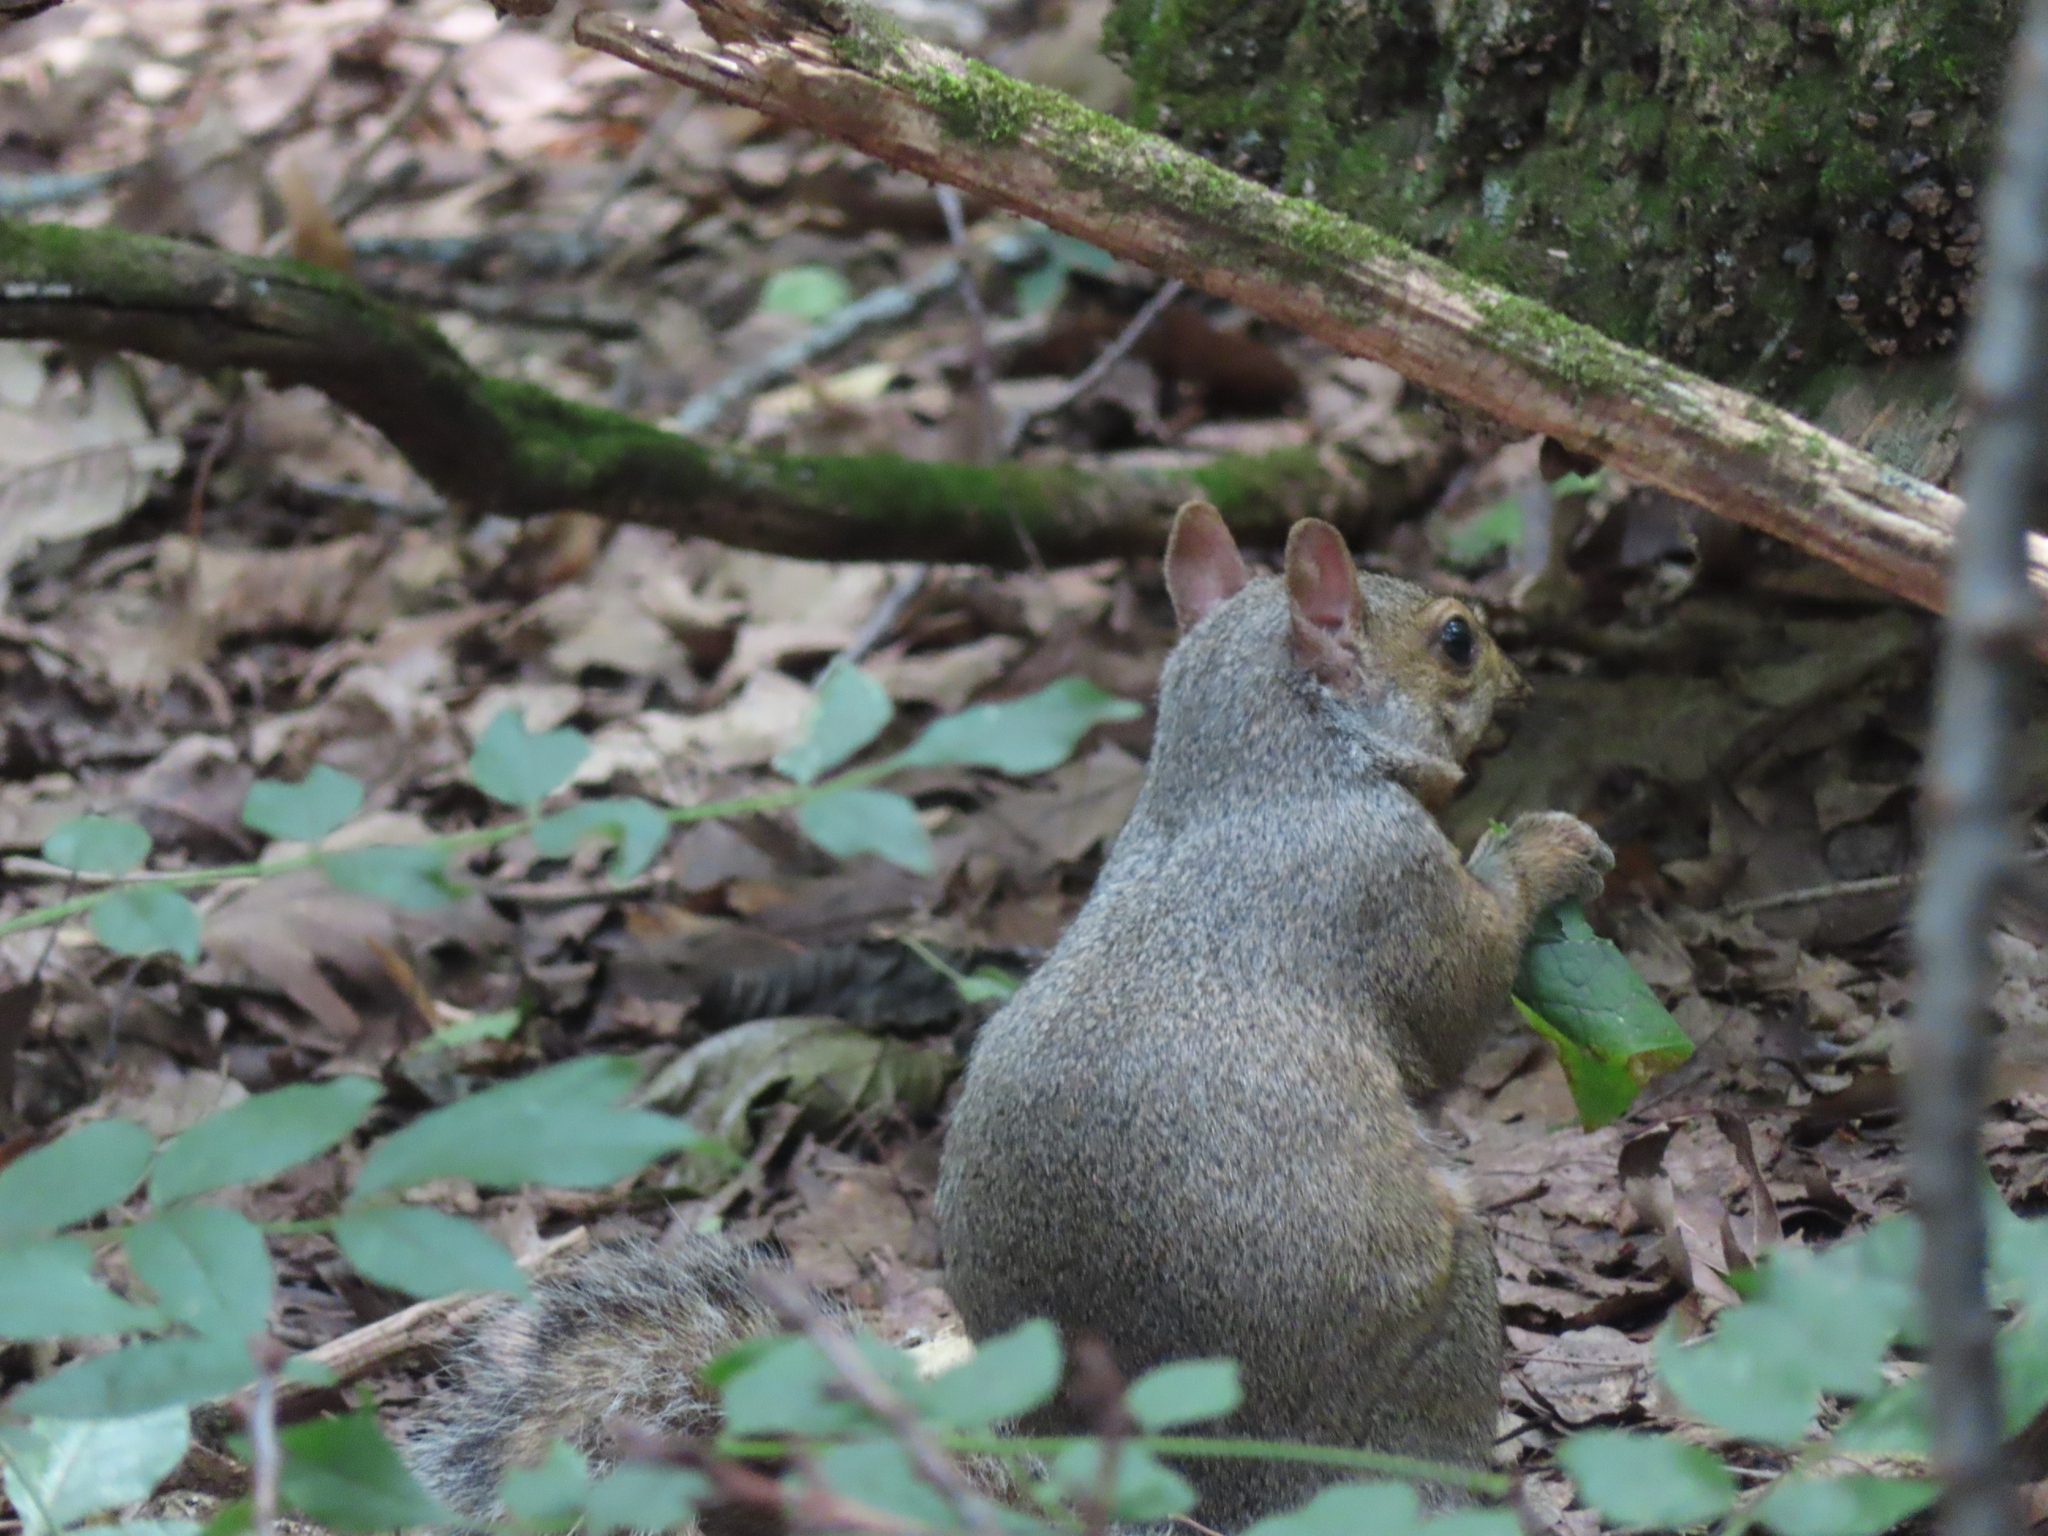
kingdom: Animalia
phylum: Chordata
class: Mammalia
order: Rodentia
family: Sciuridae
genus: Sciurus
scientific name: Sciurus carolinensis
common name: Eastern gray squirrel
